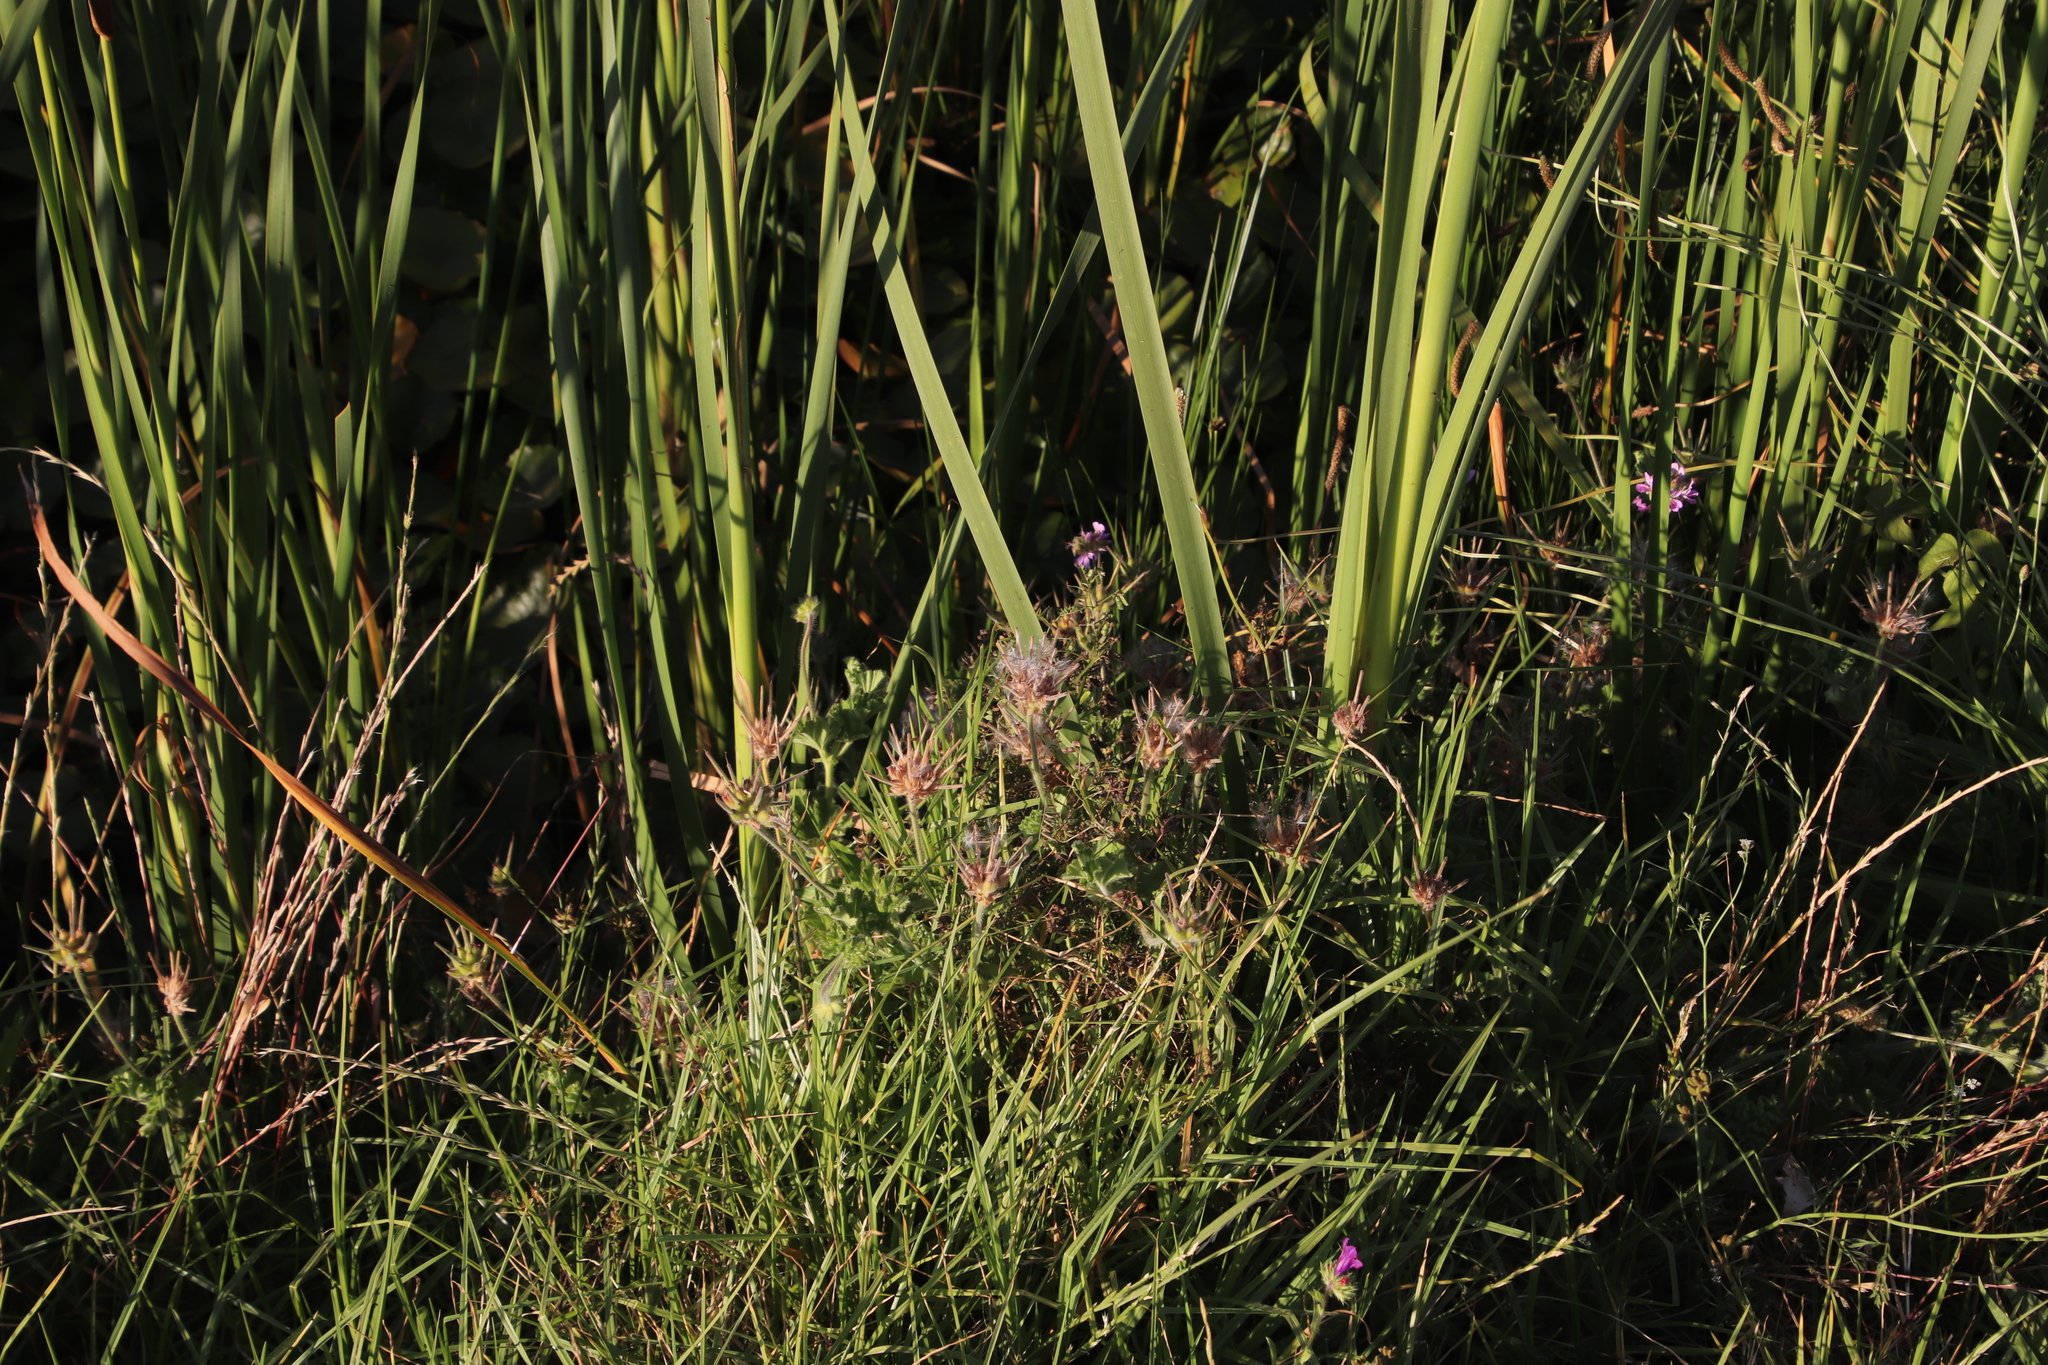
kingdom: Plantae
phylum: Tracheophyta
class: Magnoliopsida
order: Geraniales
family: Geraniaceae
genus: Pelargonium
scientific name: Pelargonium capitatum
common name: Rose scented geranium
